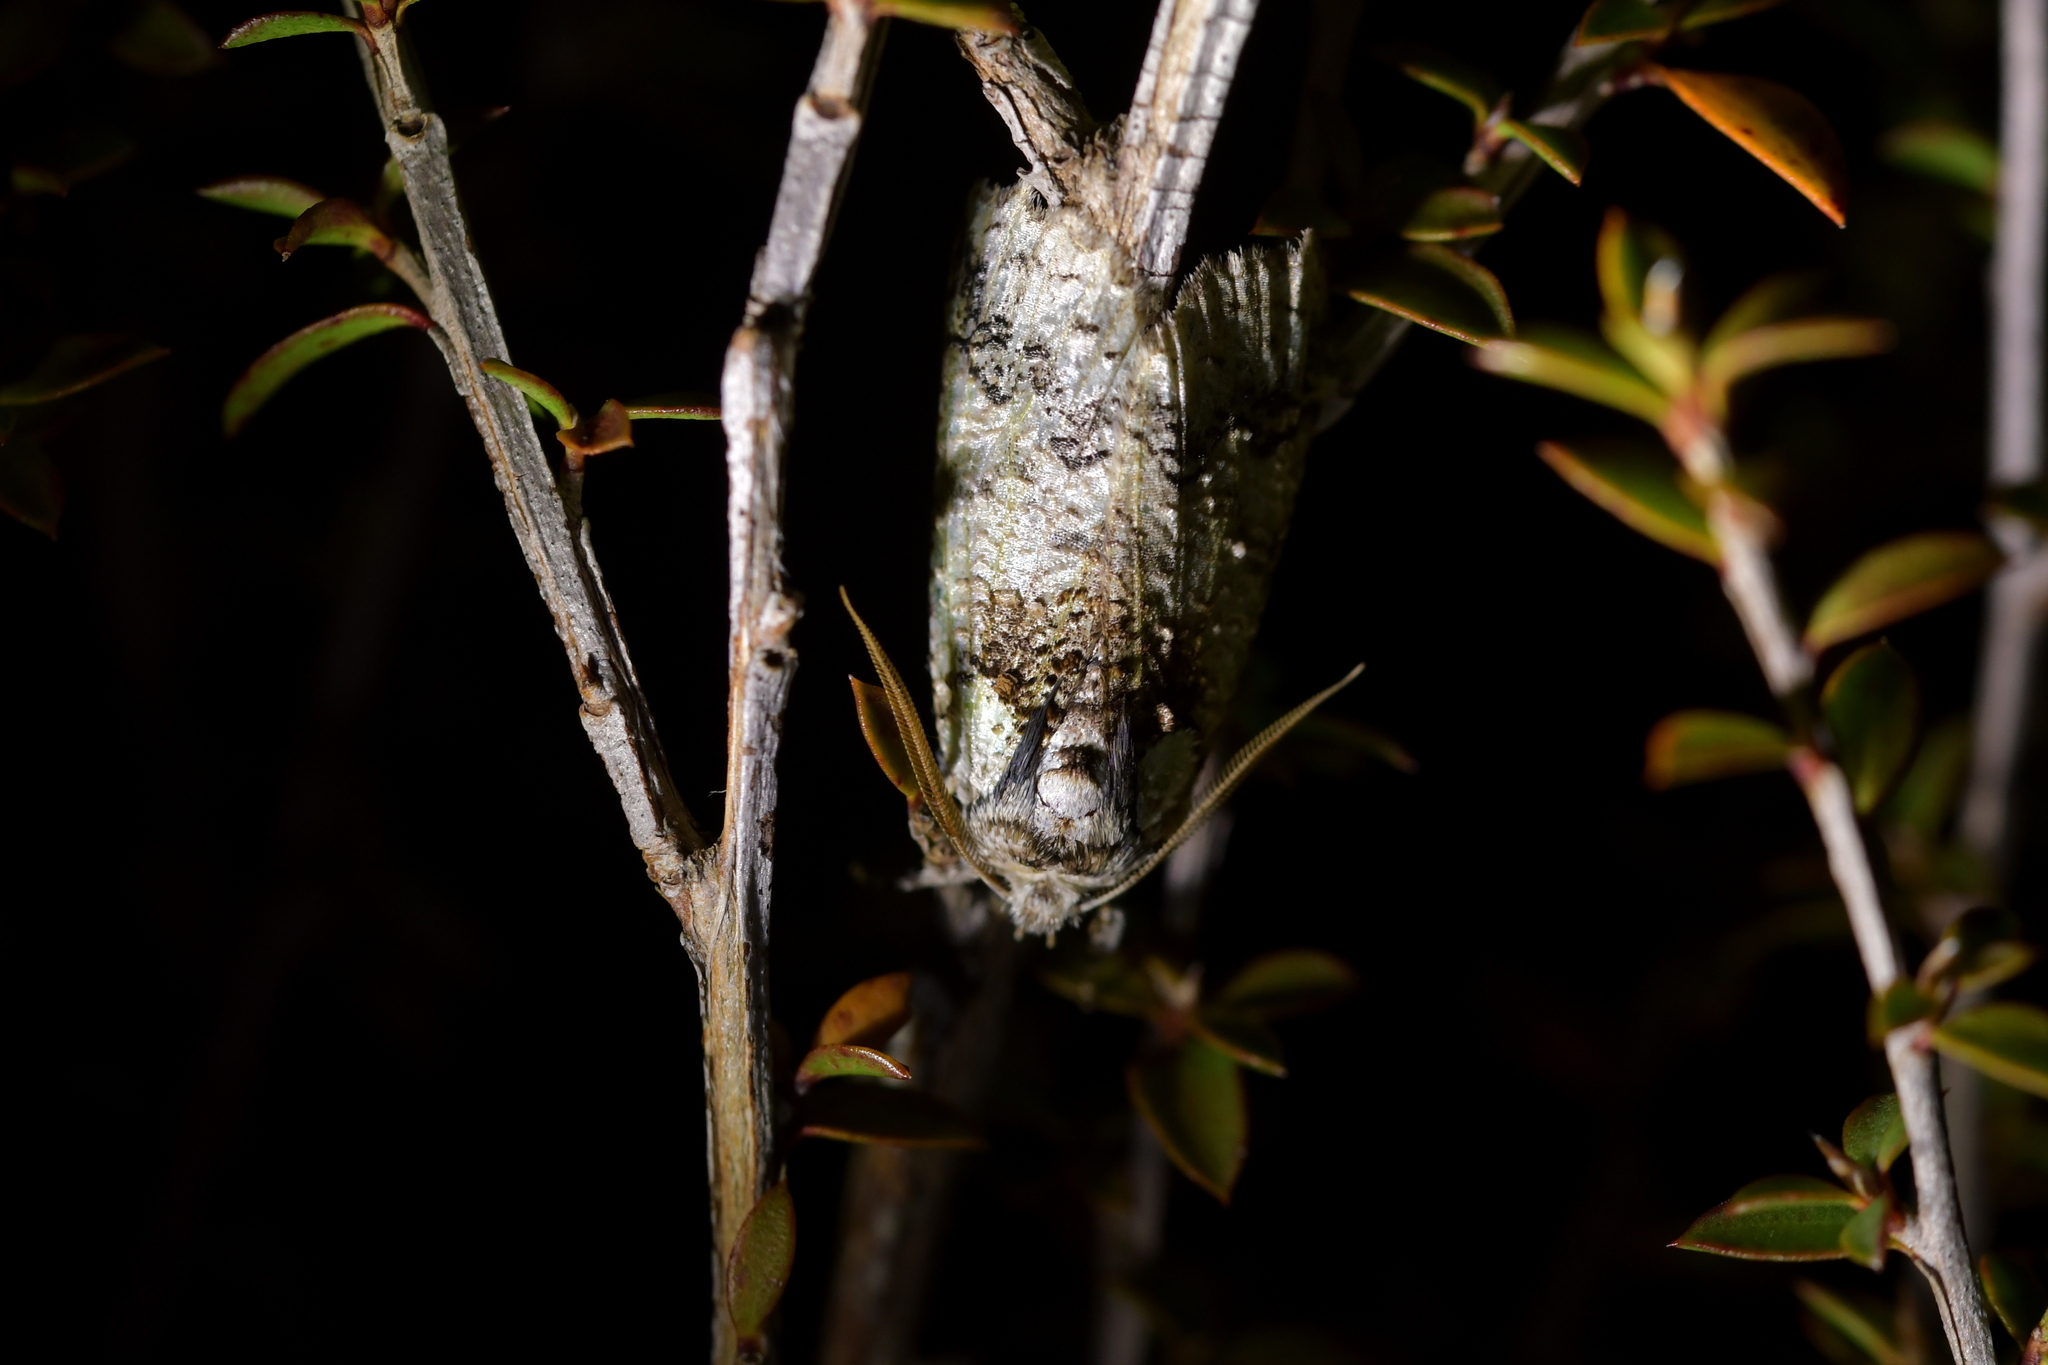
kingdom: Animalia
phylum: Arthropoda
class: Insecta
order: Lepidoptera
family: Geometridae
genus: Declana
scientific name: Declana floccosa
